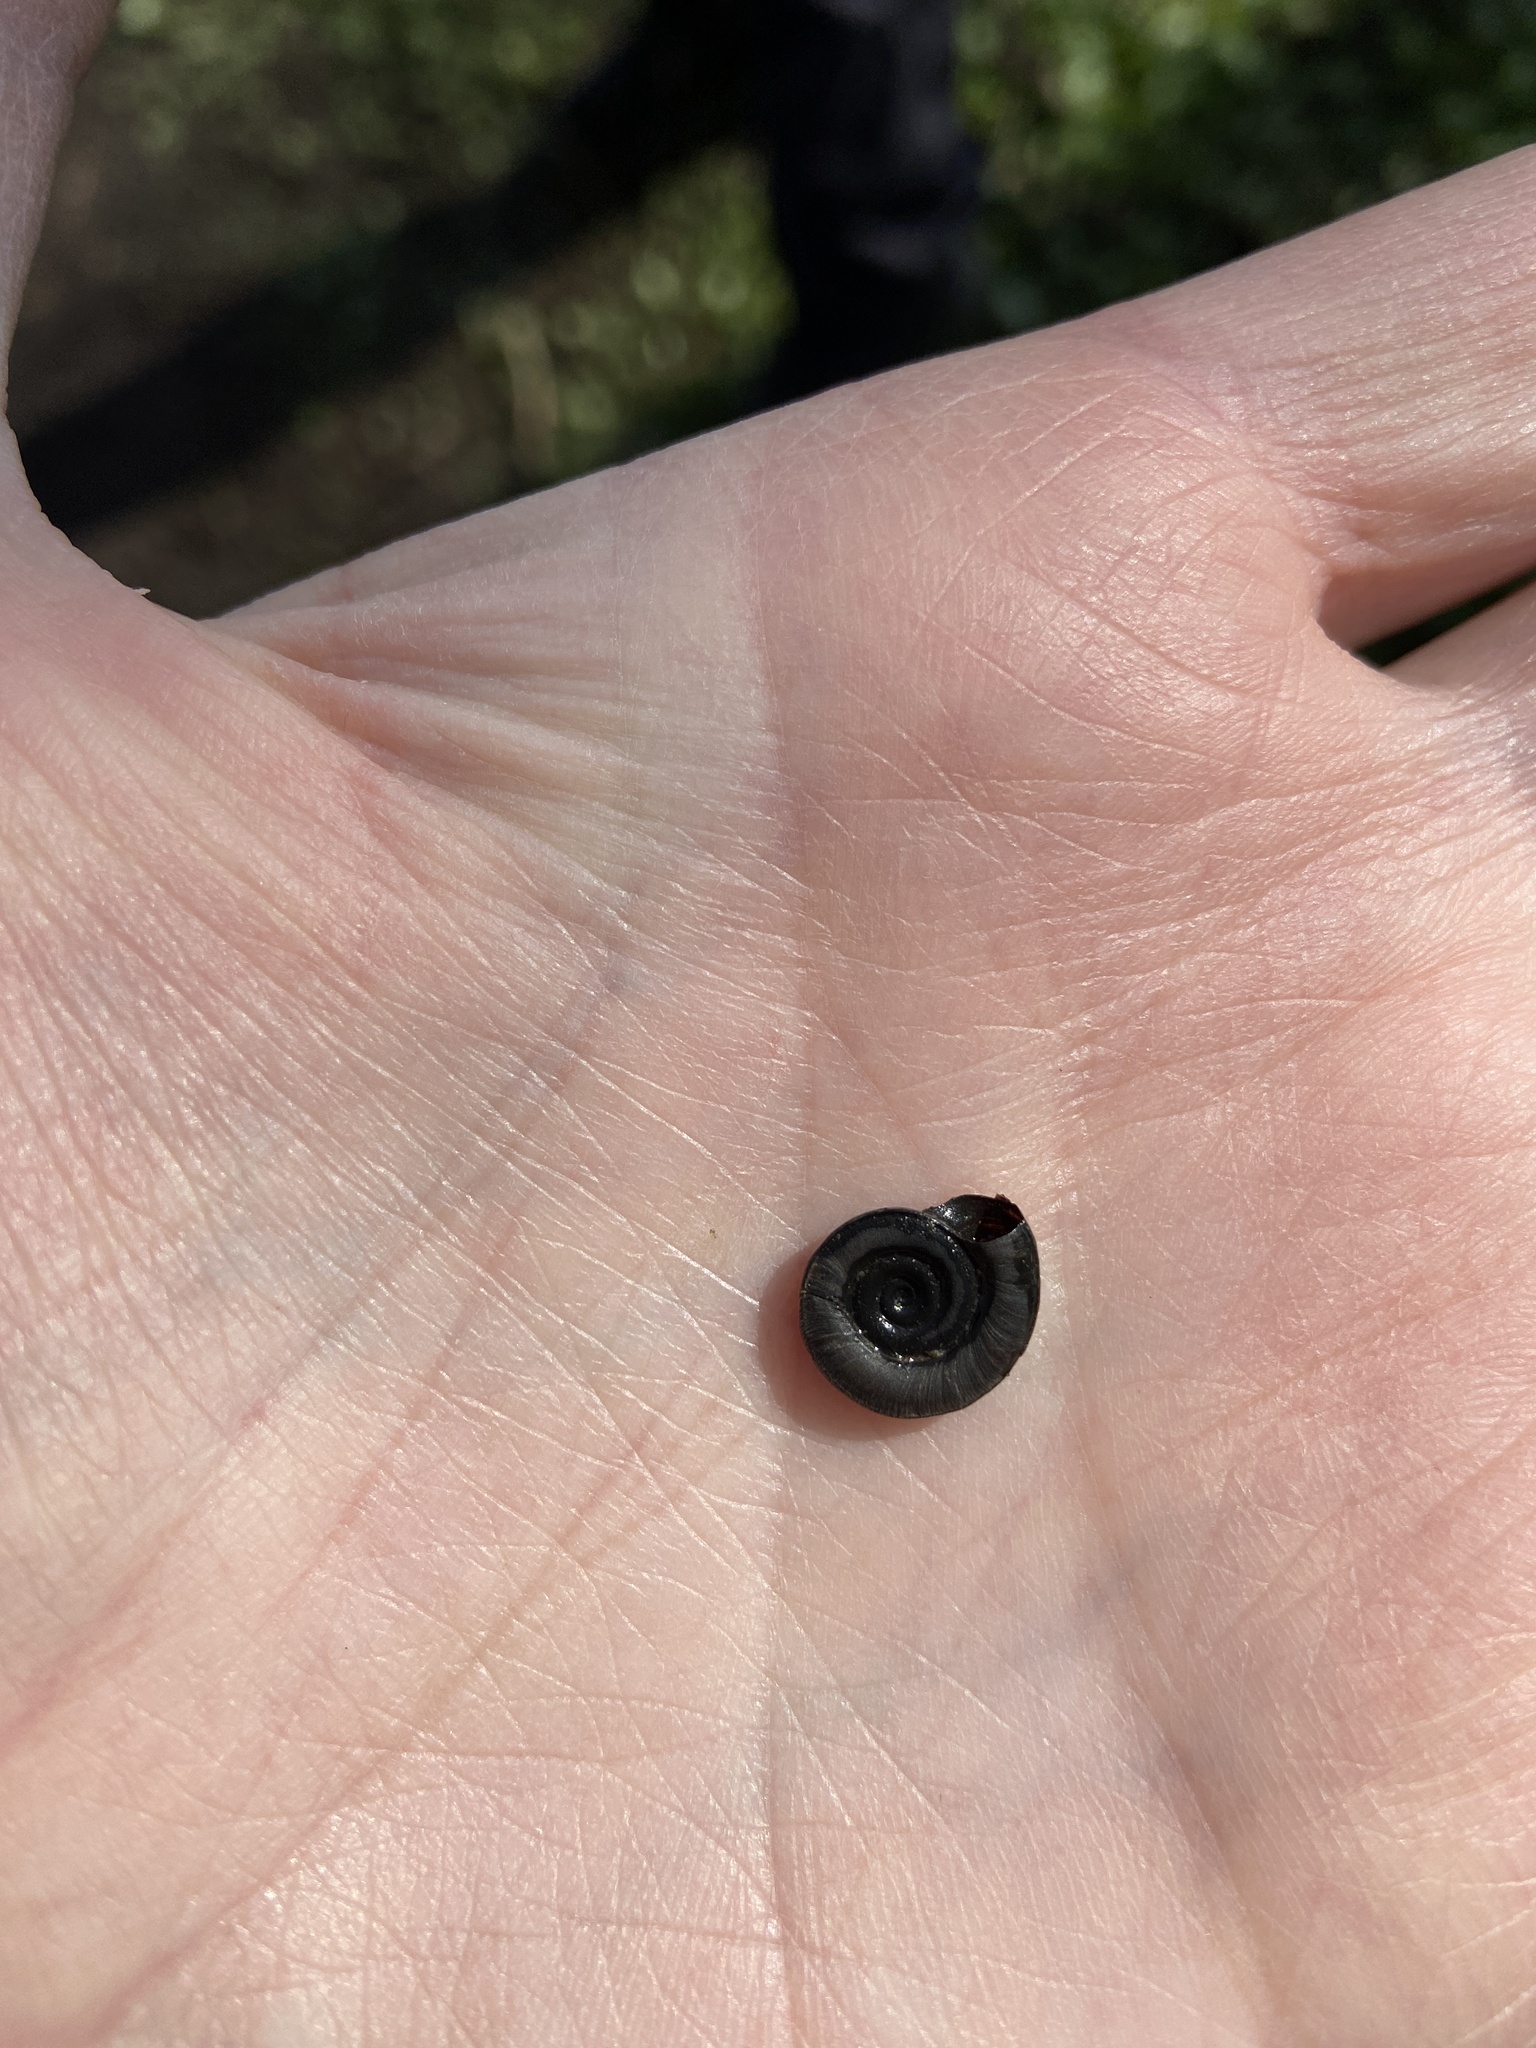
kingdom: Animalia
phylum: Mollusca
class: Gastropoda
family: Planorbidae
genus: Planorbis
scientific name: Planorbis planorbis
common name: Margined ramshorn
